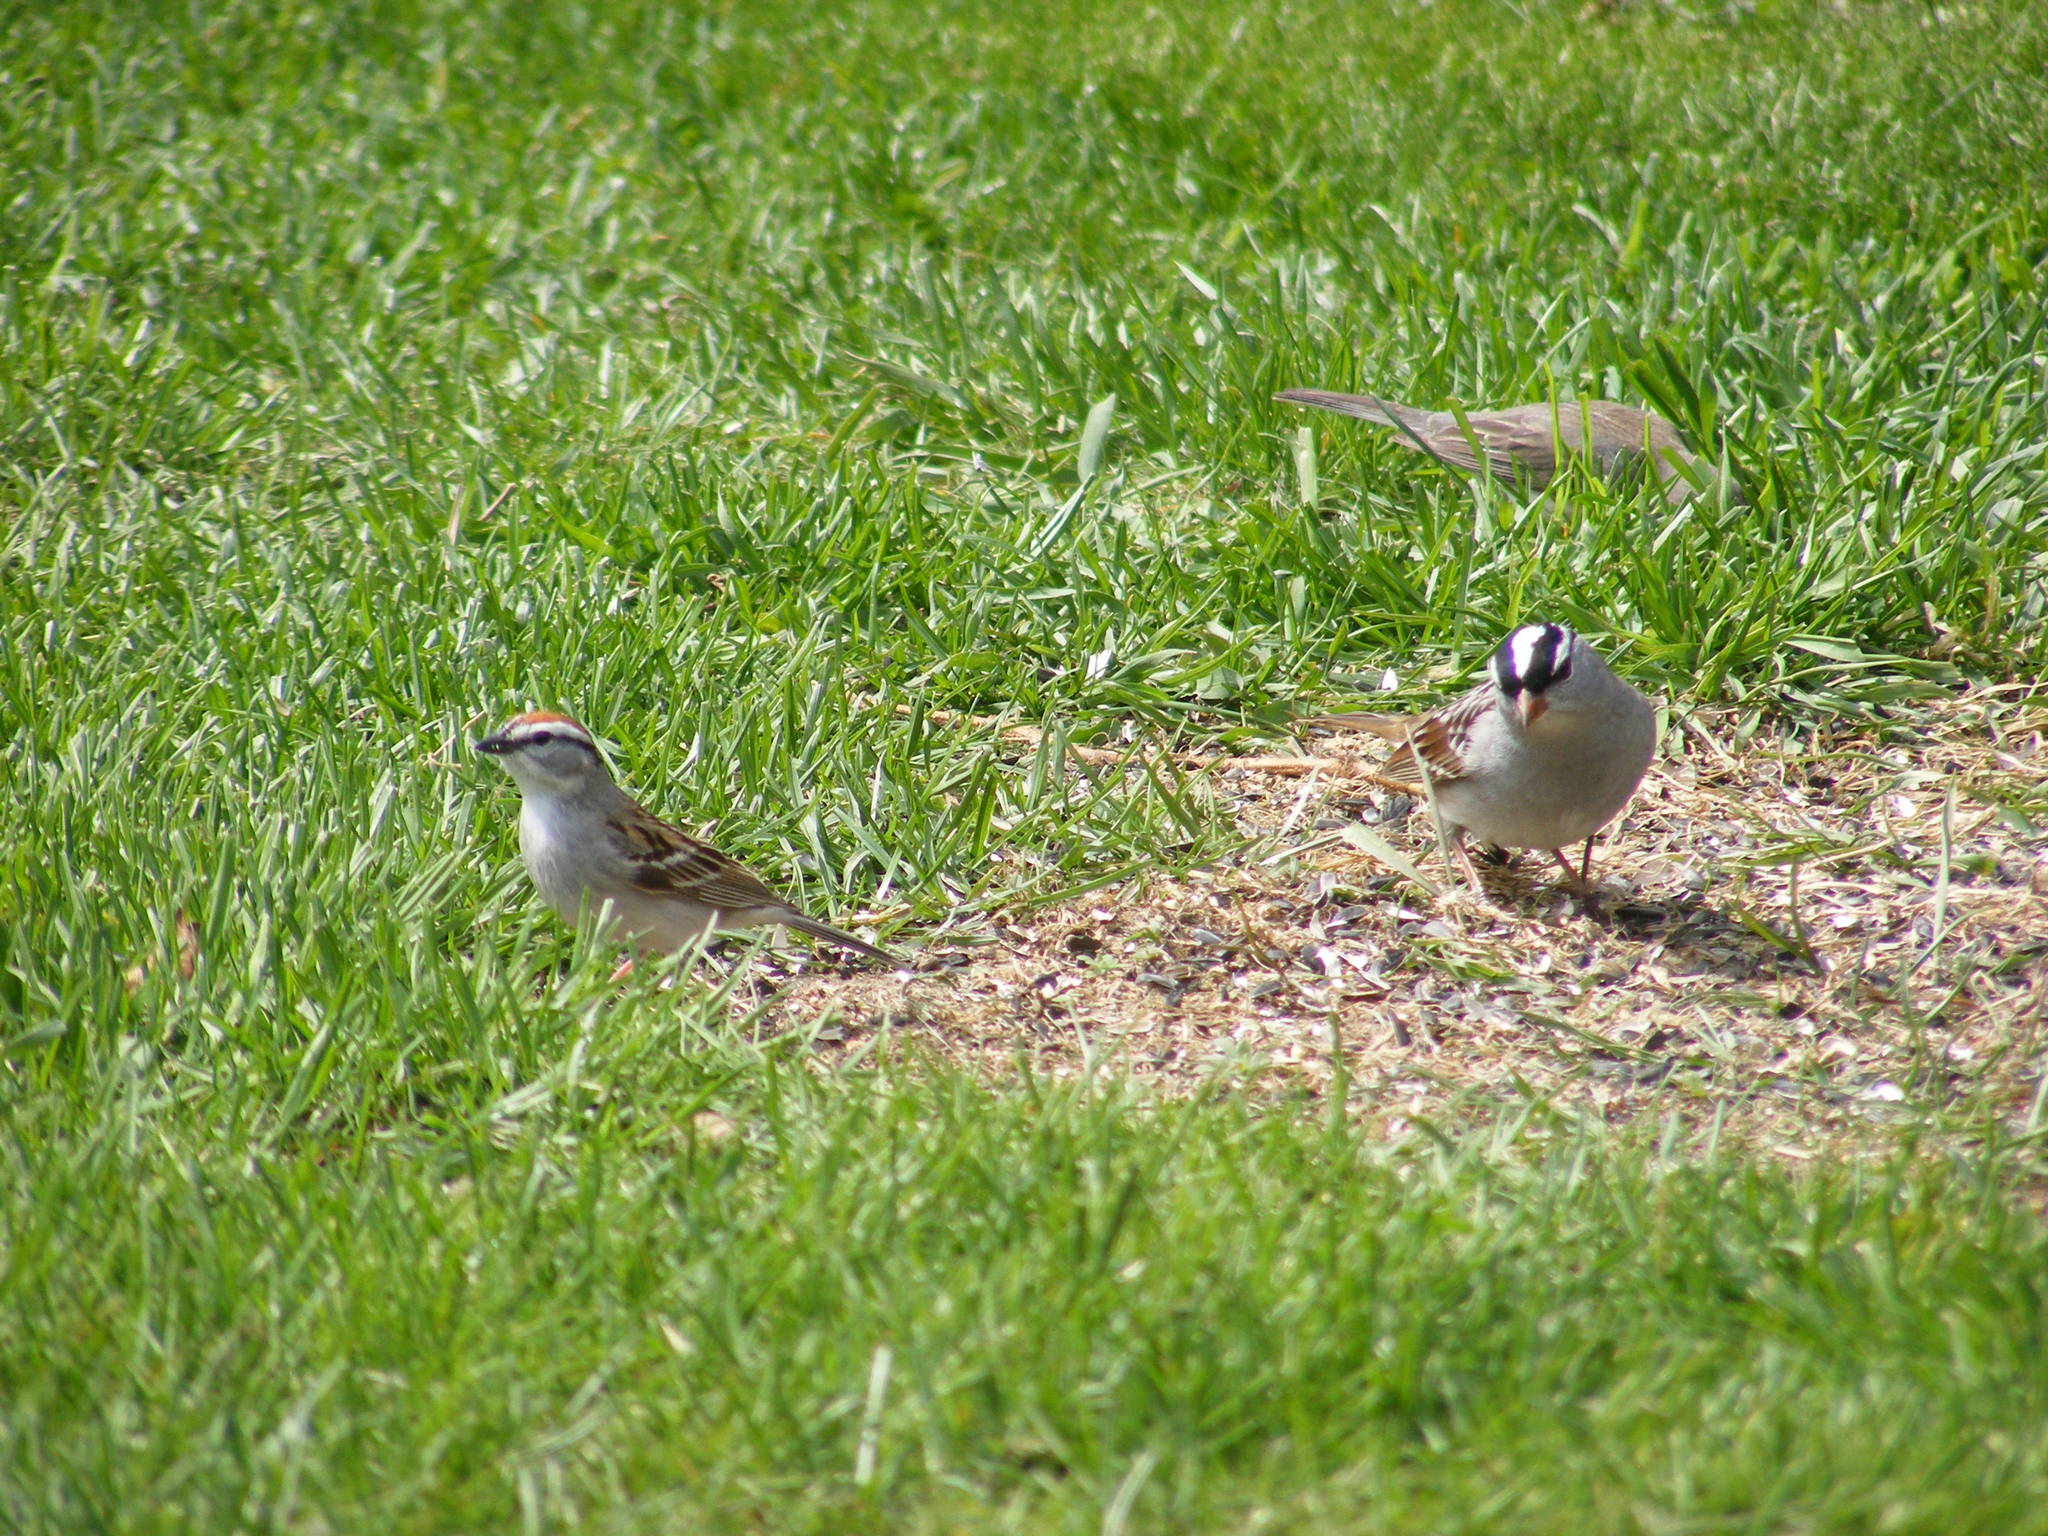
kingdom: Animalia
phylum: Chordata
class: Aves
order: Passeriformes
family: Passerellidae
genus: Zonotrichia
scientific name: Zonotrichia leucophrys
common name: White-crowned sparrow
